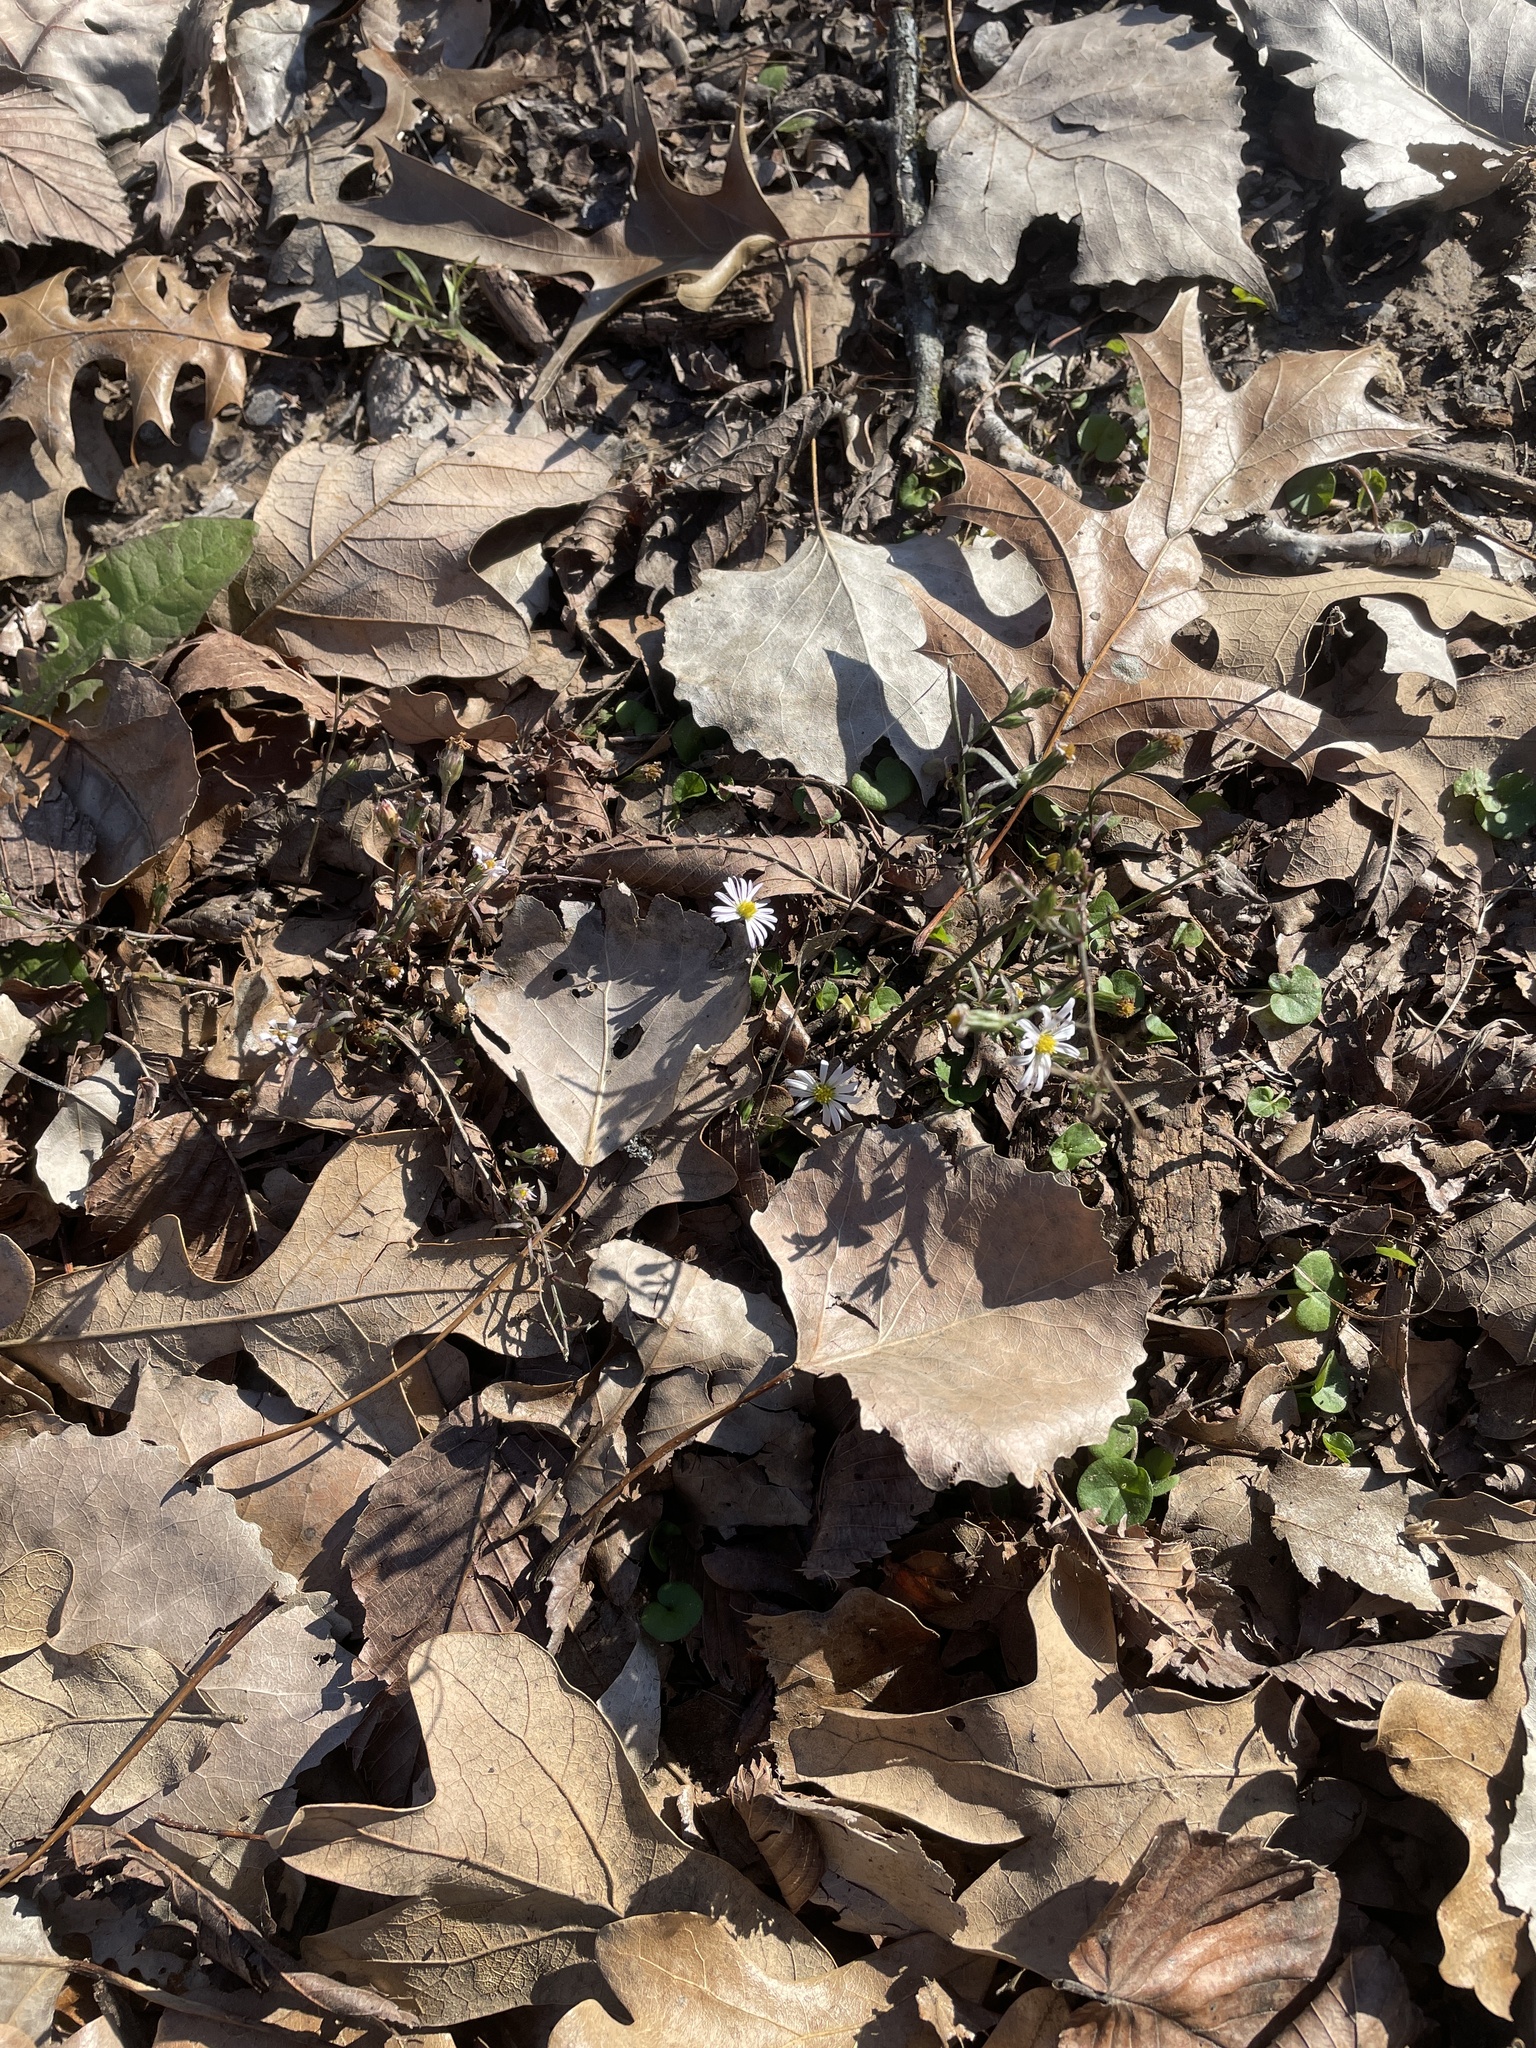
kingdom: Plantae
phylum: Tracheophyta
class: Magnoliopsida
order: Asterales
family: Asteraceae
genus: Symphyotrichum
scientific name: Symphyotrichum divaricatum
